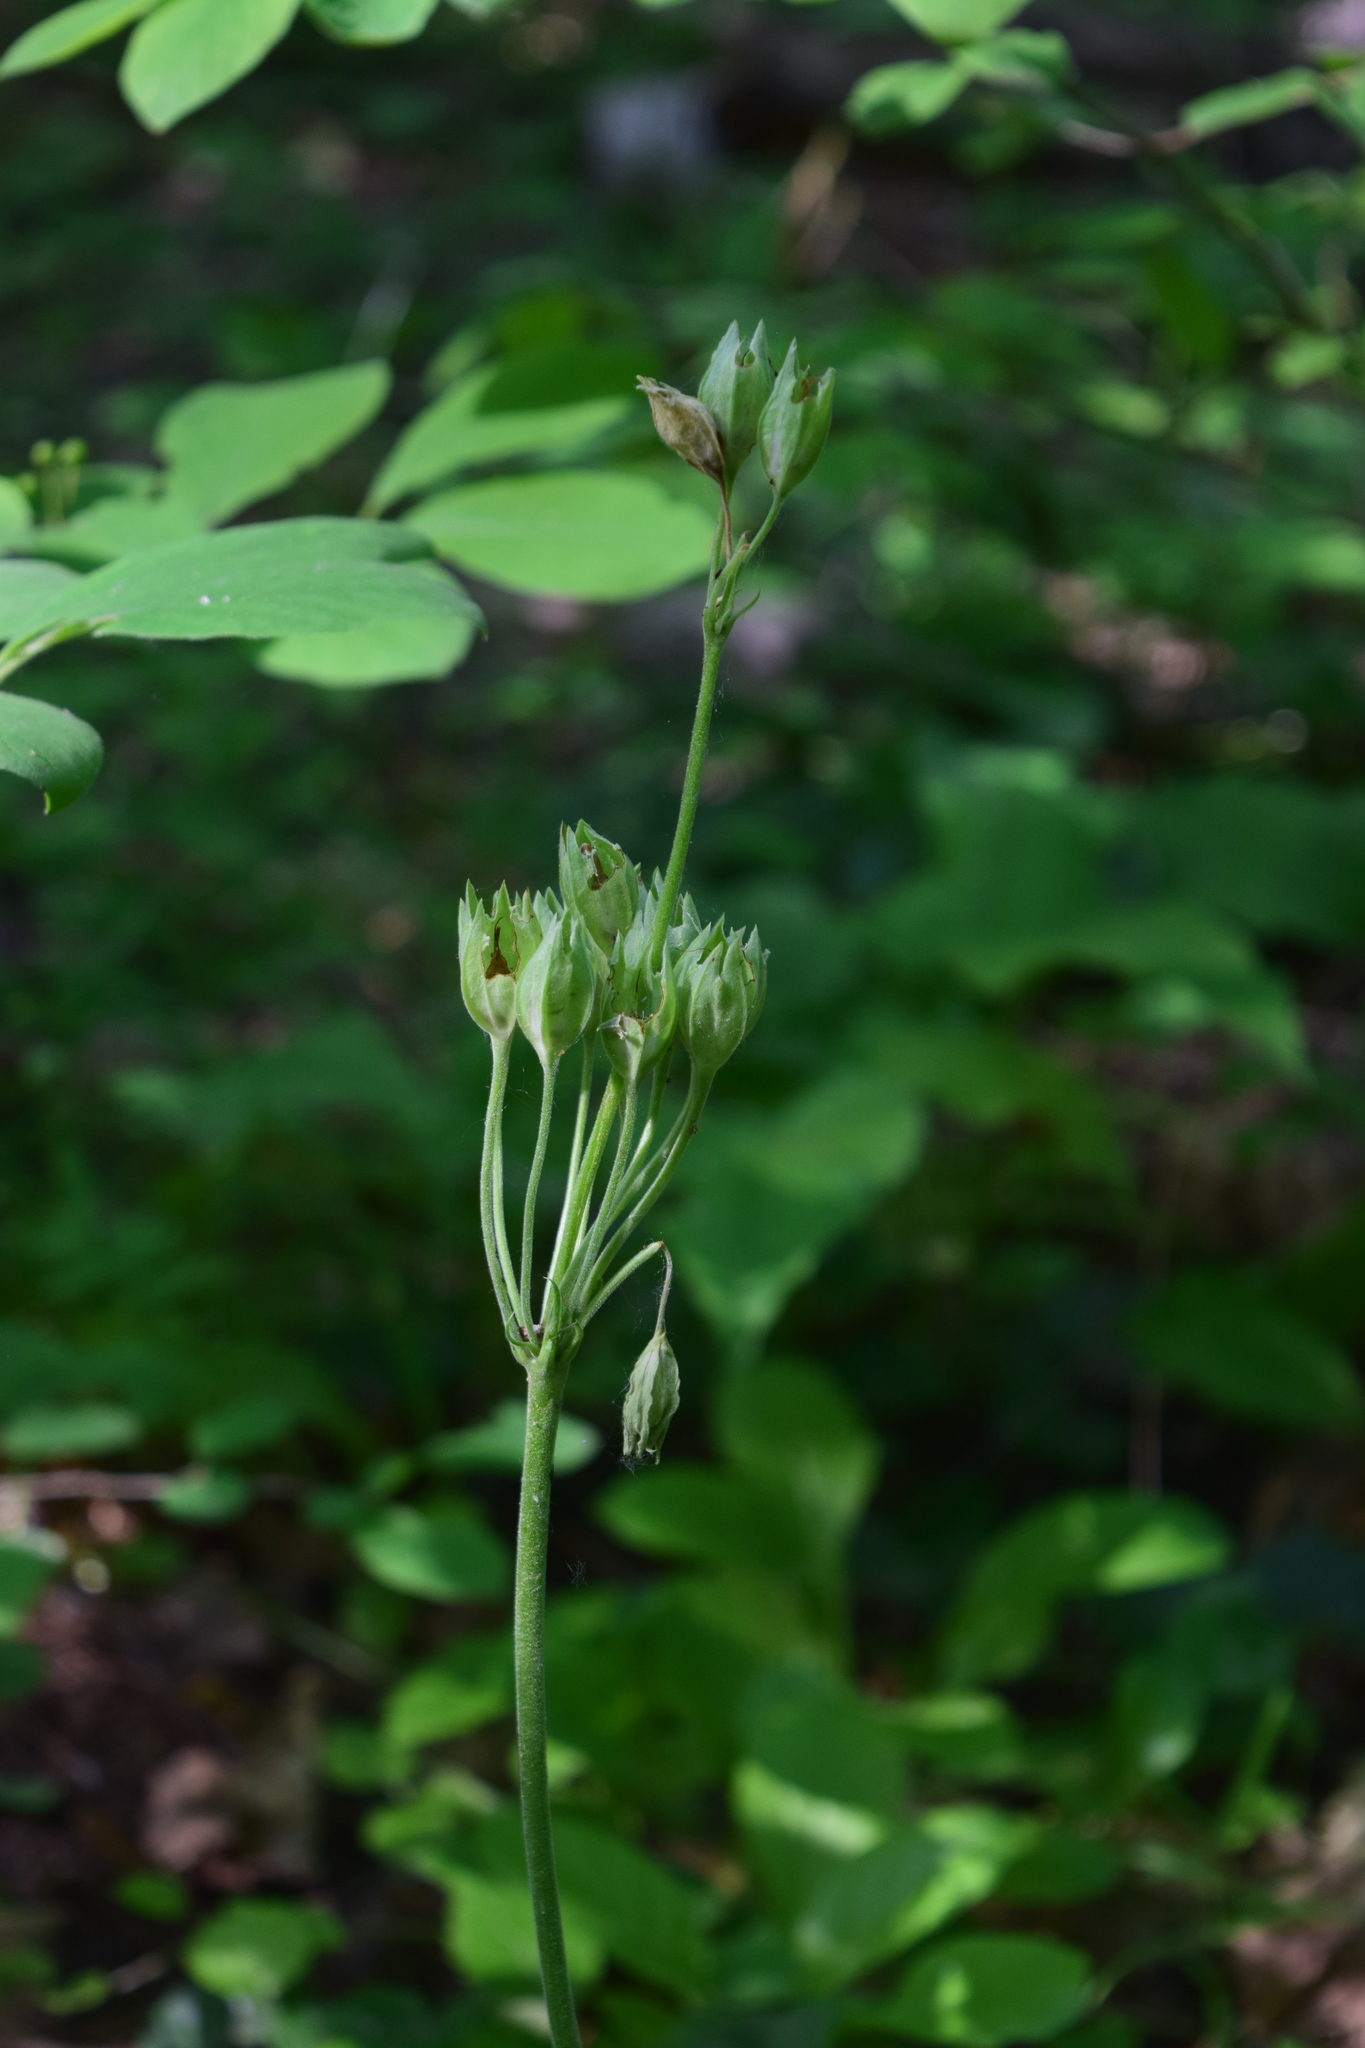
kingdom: Plantae
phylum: Tracheophyta
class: Magnoliopsida
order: Ericales
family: Primulaceae
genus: Primula
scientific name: Primula veris
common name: Cowslip
